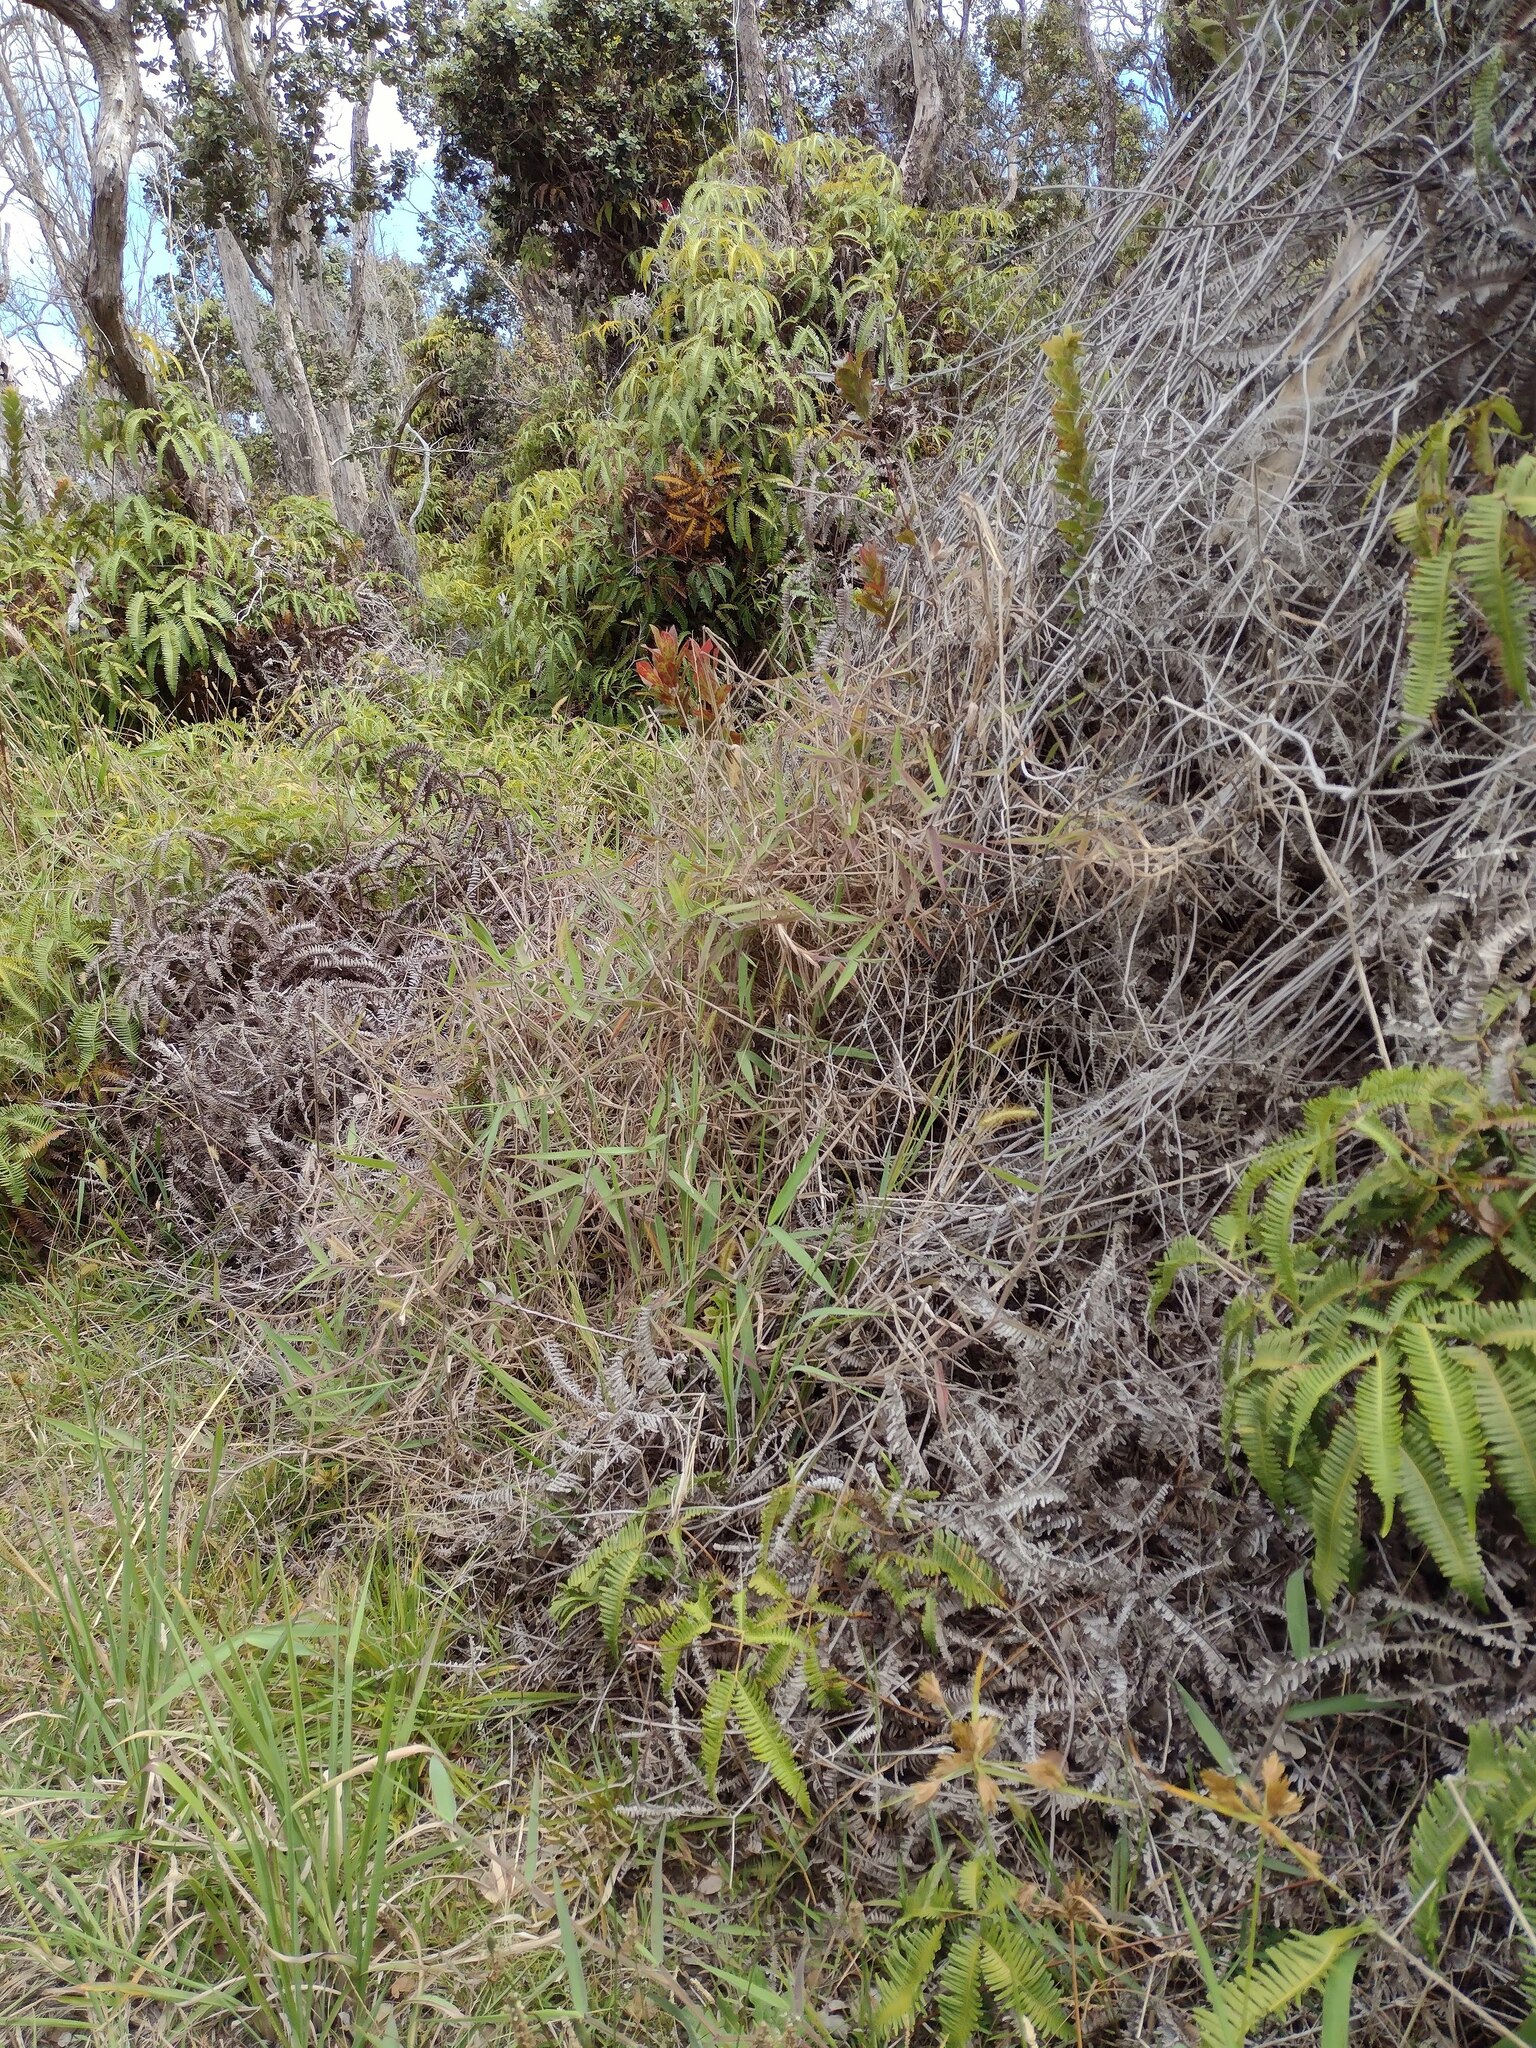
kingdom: Plantae
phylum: Tracheophyta
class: Liliopsida
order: Poales
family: Poaceae
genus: Melinis
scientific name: Melinis minutiflora
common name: Molassesgrass
